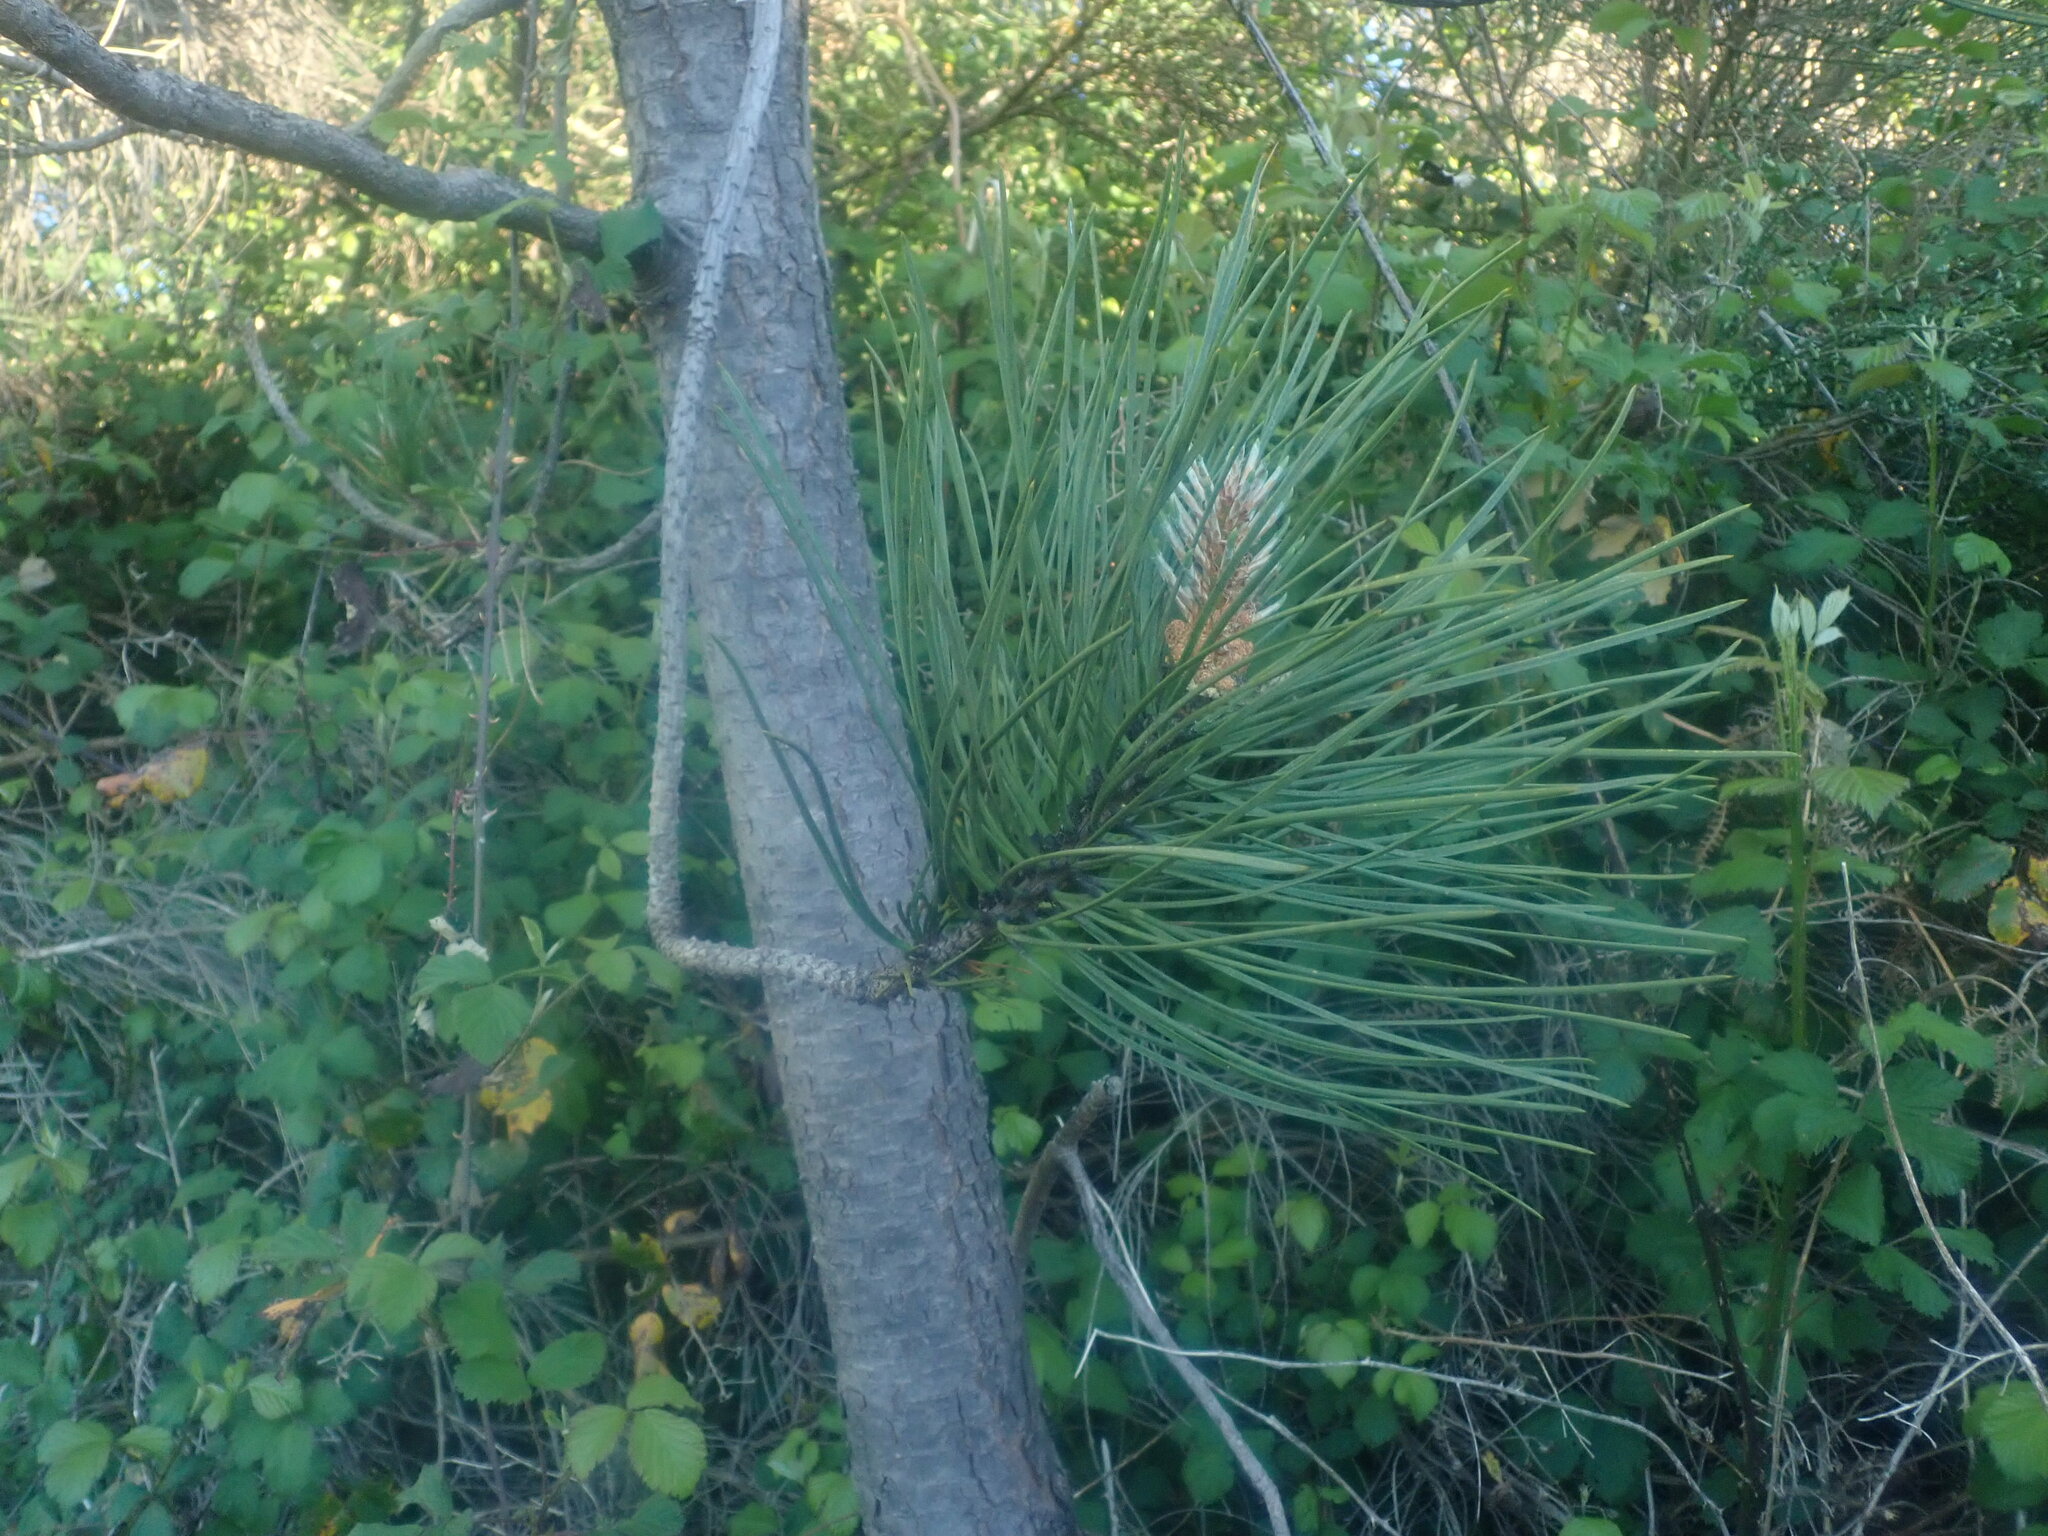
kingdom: Plantae
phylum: Tracheophyta
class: Pinopsida
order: Pinales
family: Pinaceae
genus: Pinus
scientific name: Pinus pinaster
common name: Maritime pine
